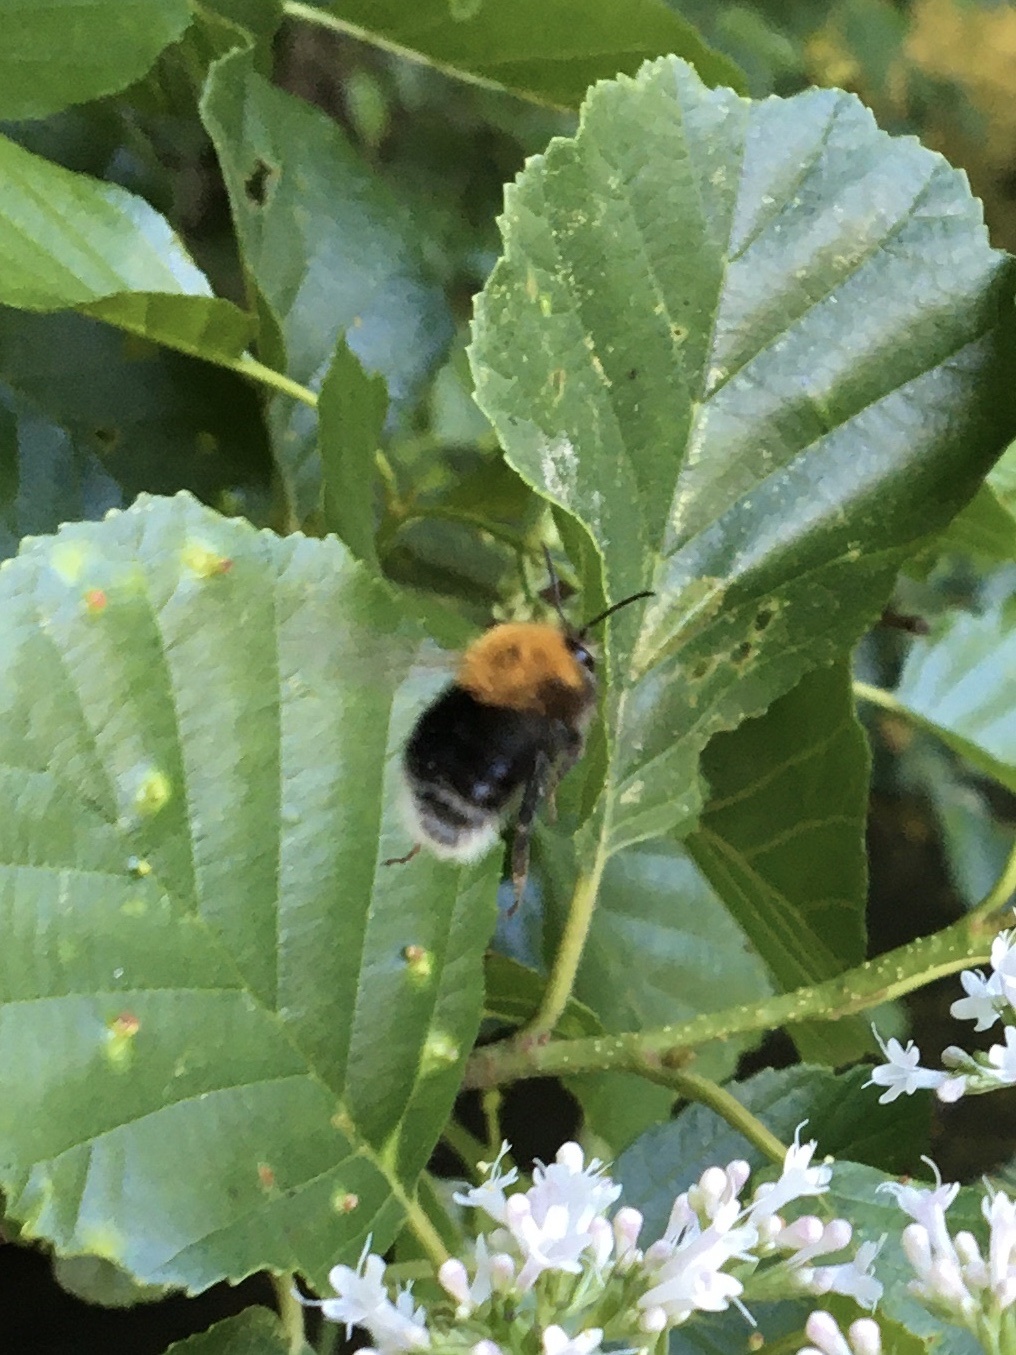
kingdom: Animalia
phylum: Arthropoda
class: Insecta
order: Hymenoptera
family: Apidae
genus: Bombus
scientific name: Bombus hypnorum
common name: New garden bumblebee
